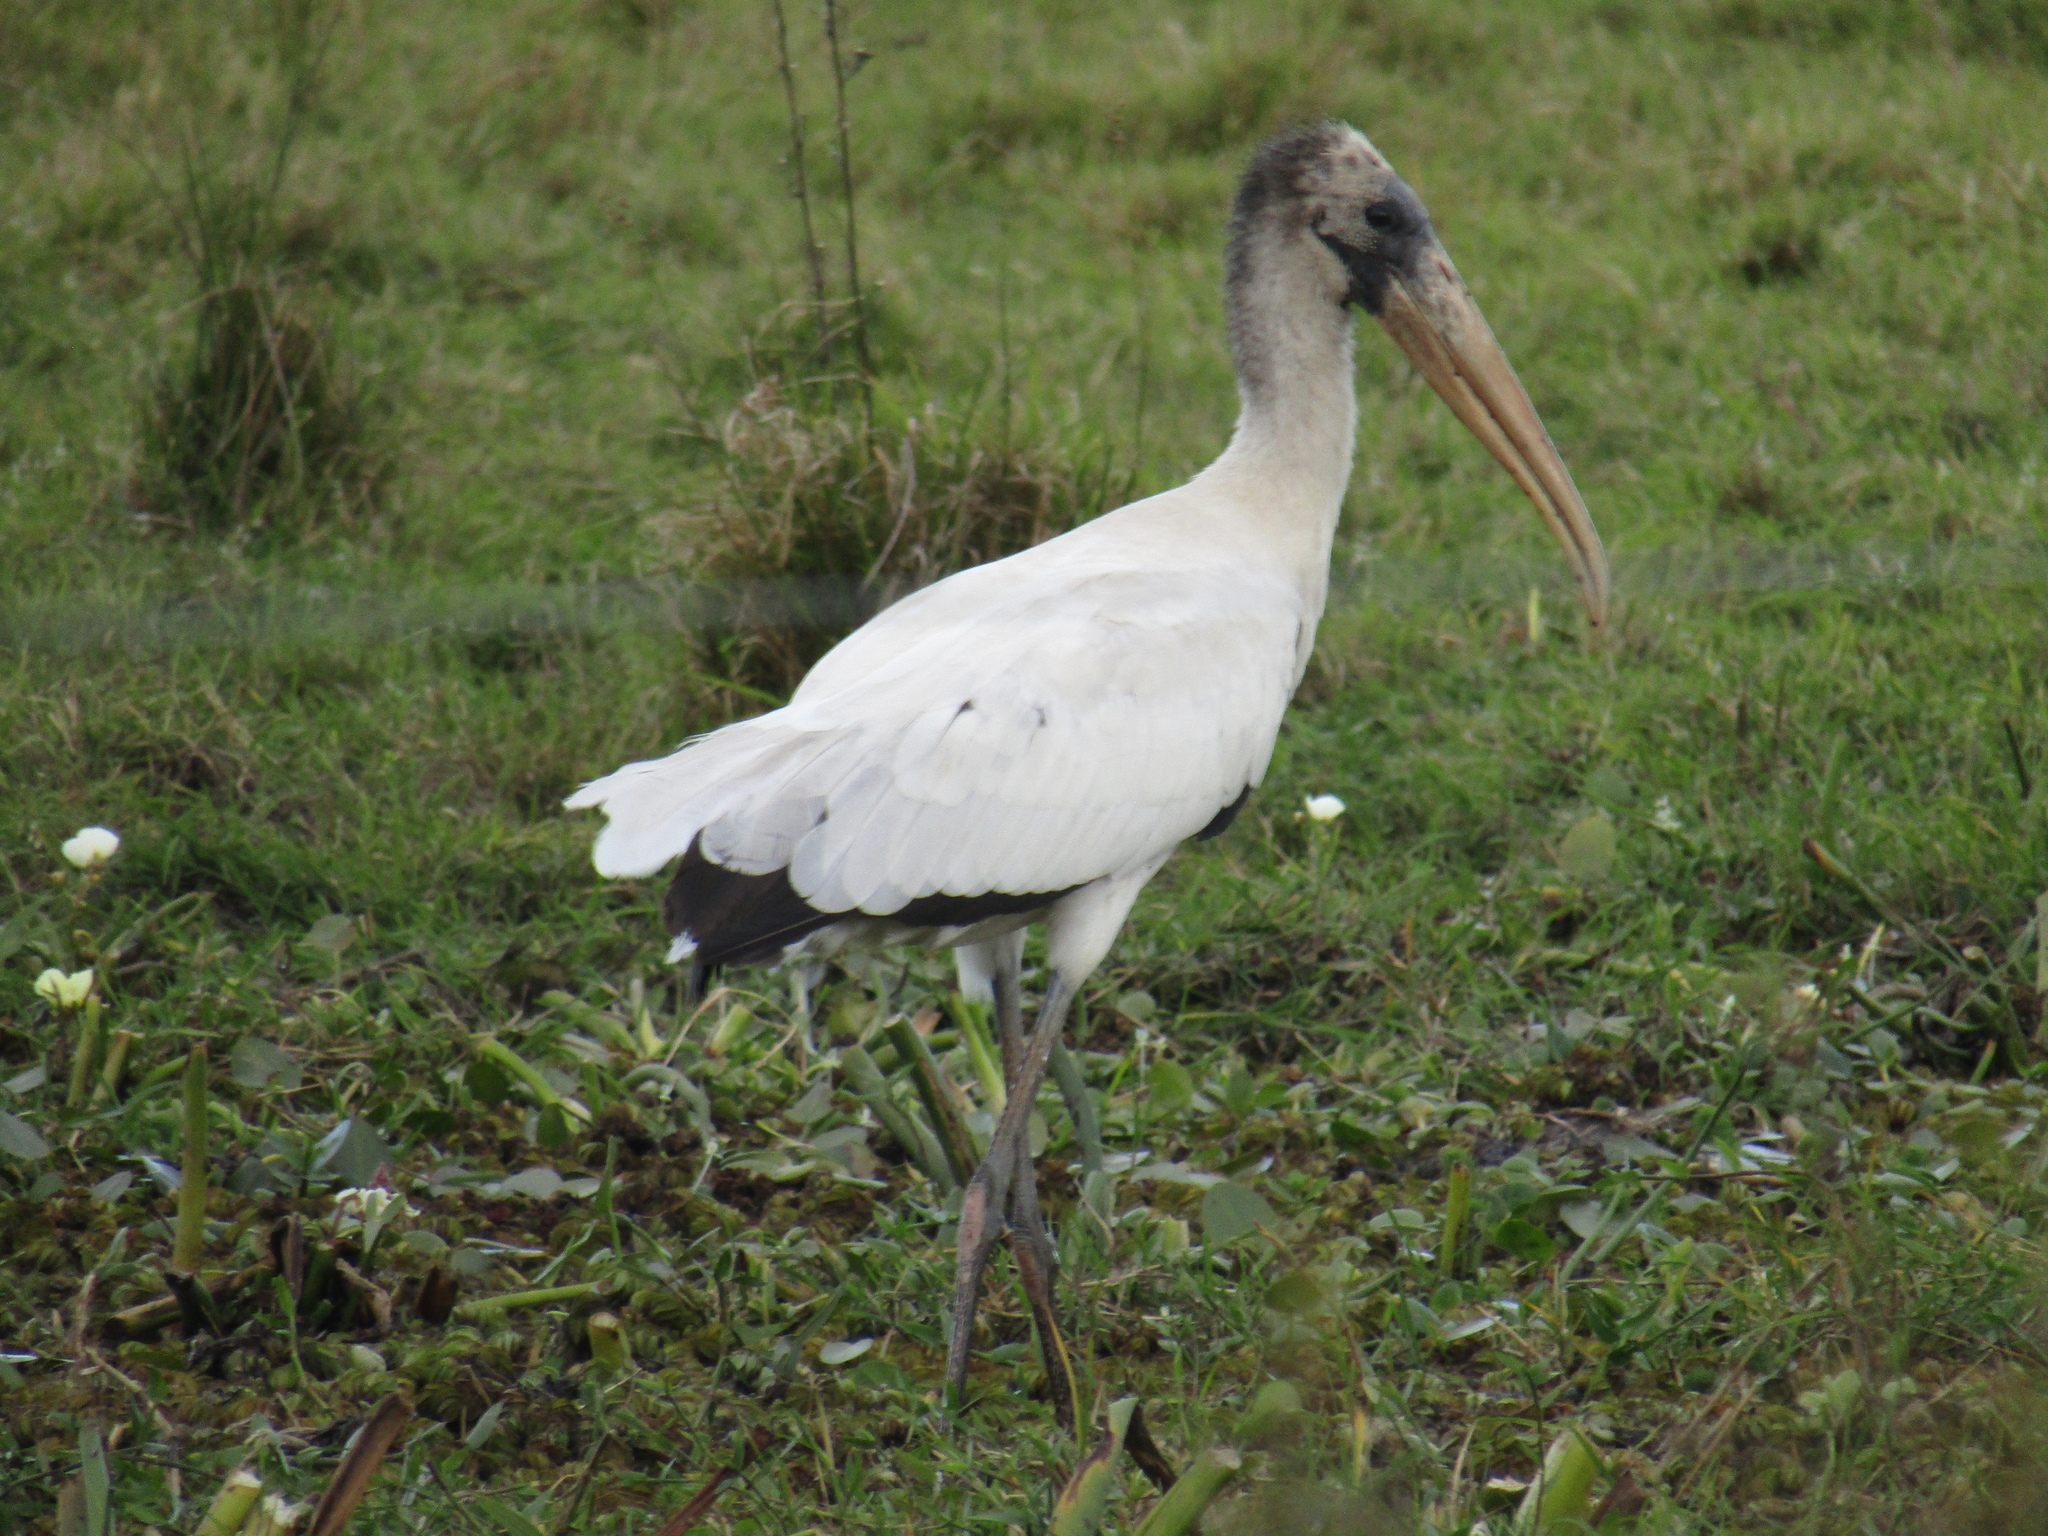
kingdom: Animalia
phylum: Chordata
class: Aves
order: Ciconiiformes
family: Ciconiidae
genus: Mycteria
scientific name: Mycteria americana
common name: Wood stork
